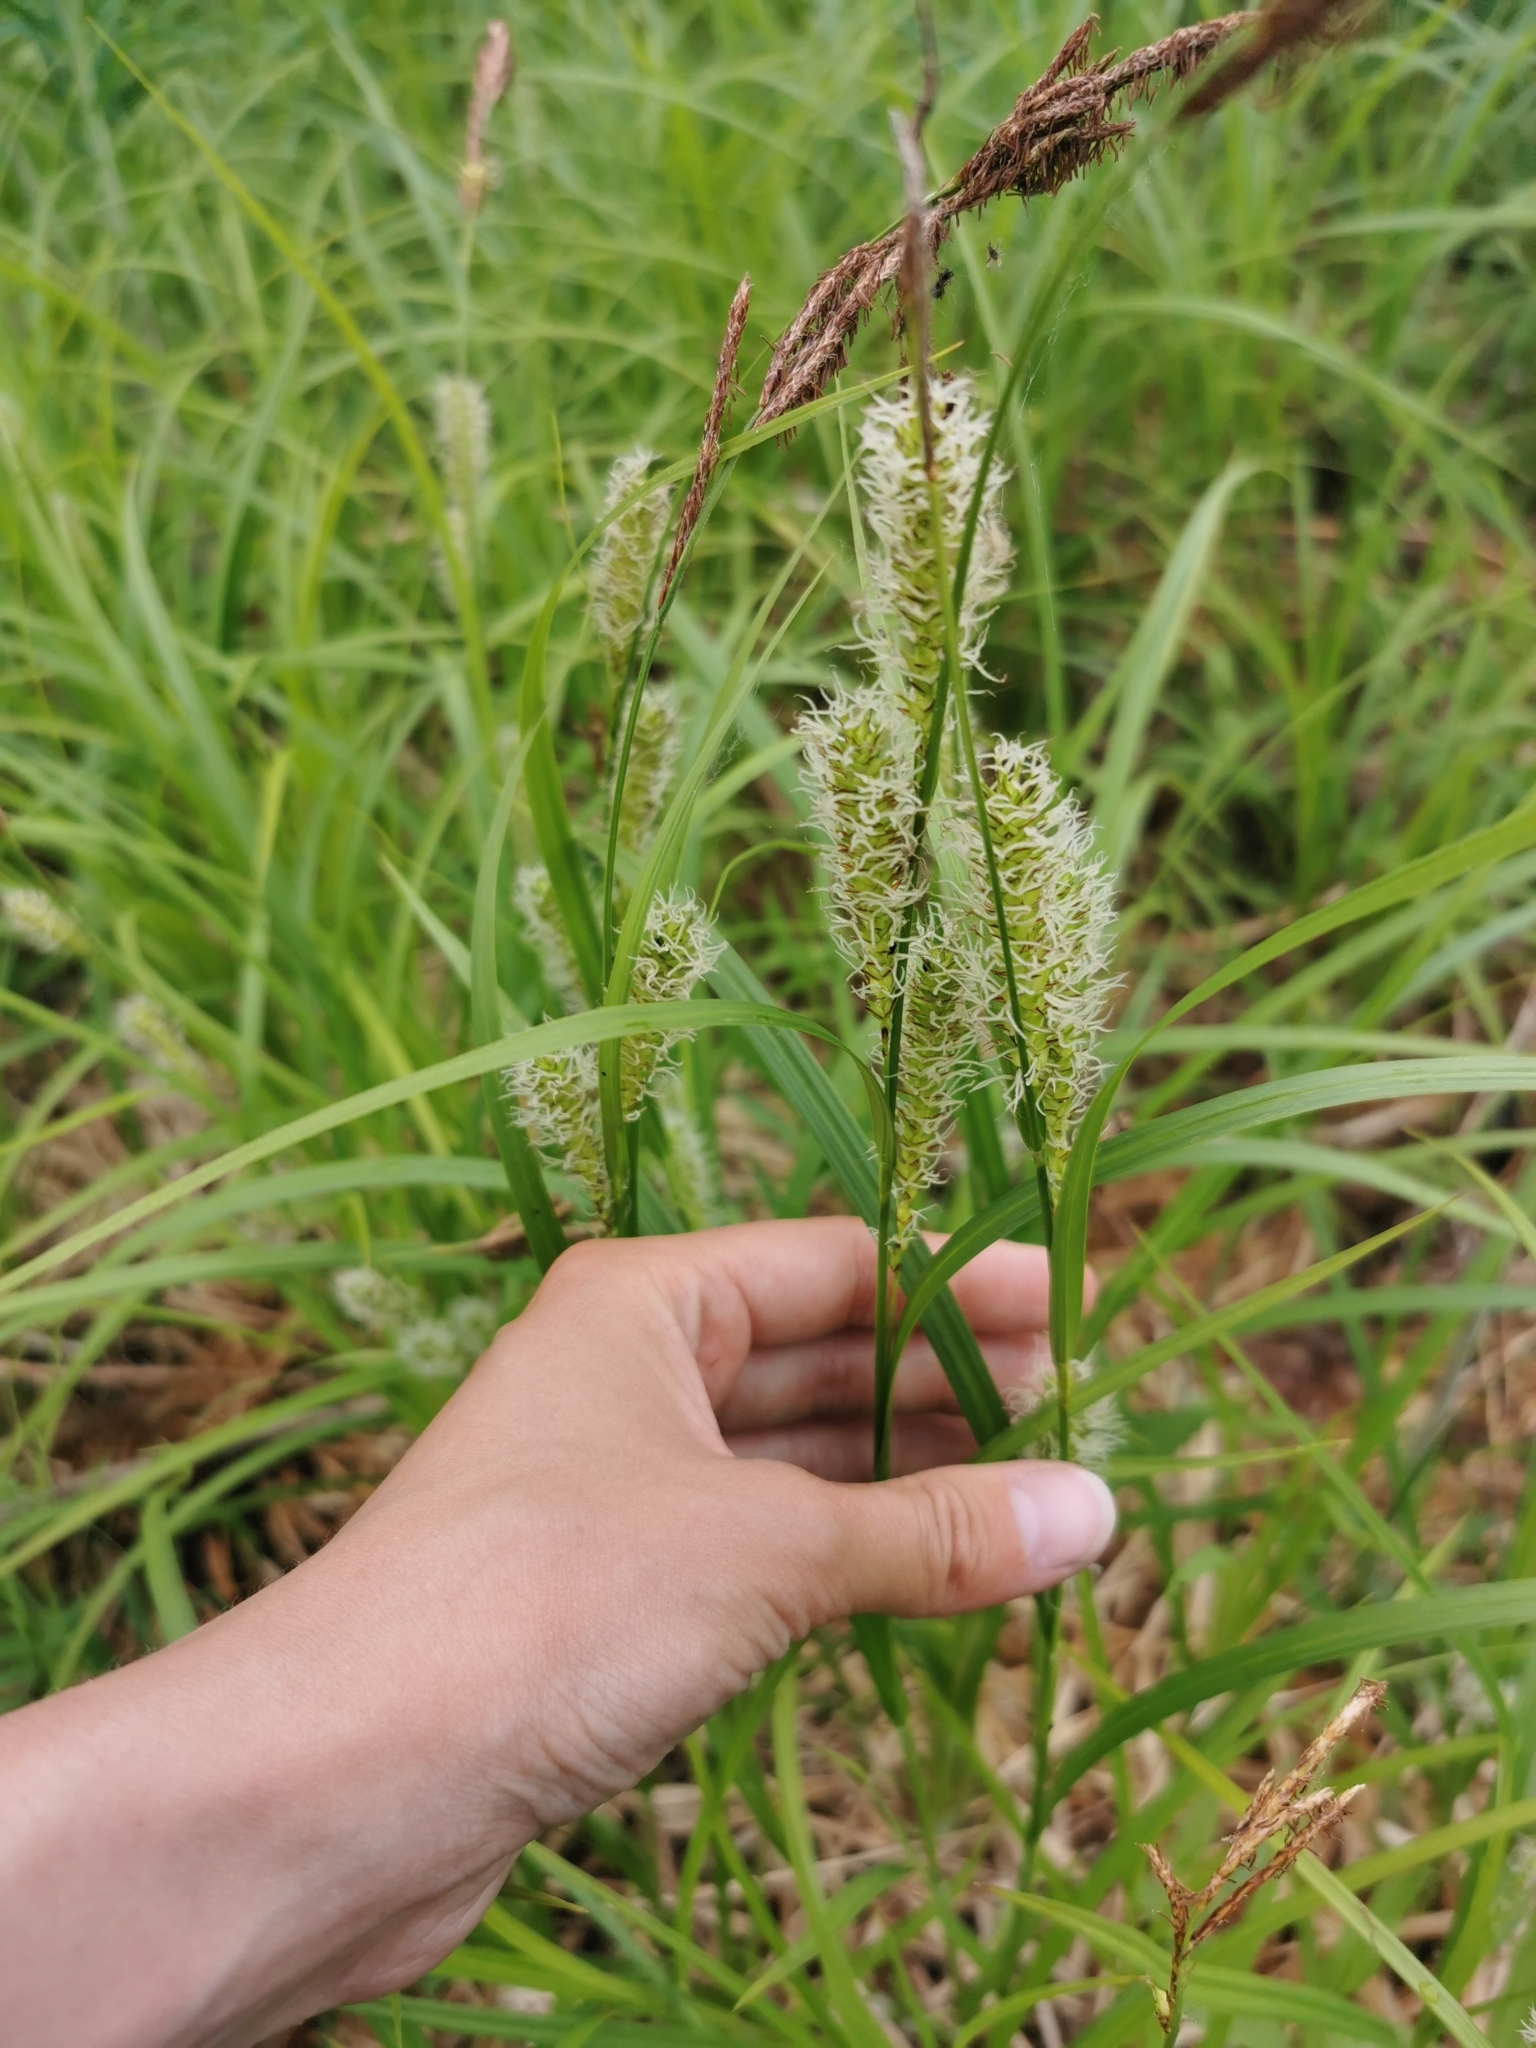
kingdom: Plantae
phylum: Tracheophyta
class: Liliopsida
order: Poales
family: Cyperaceae
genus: Carex
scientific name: Carex utriculata
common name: Beaked sedge
